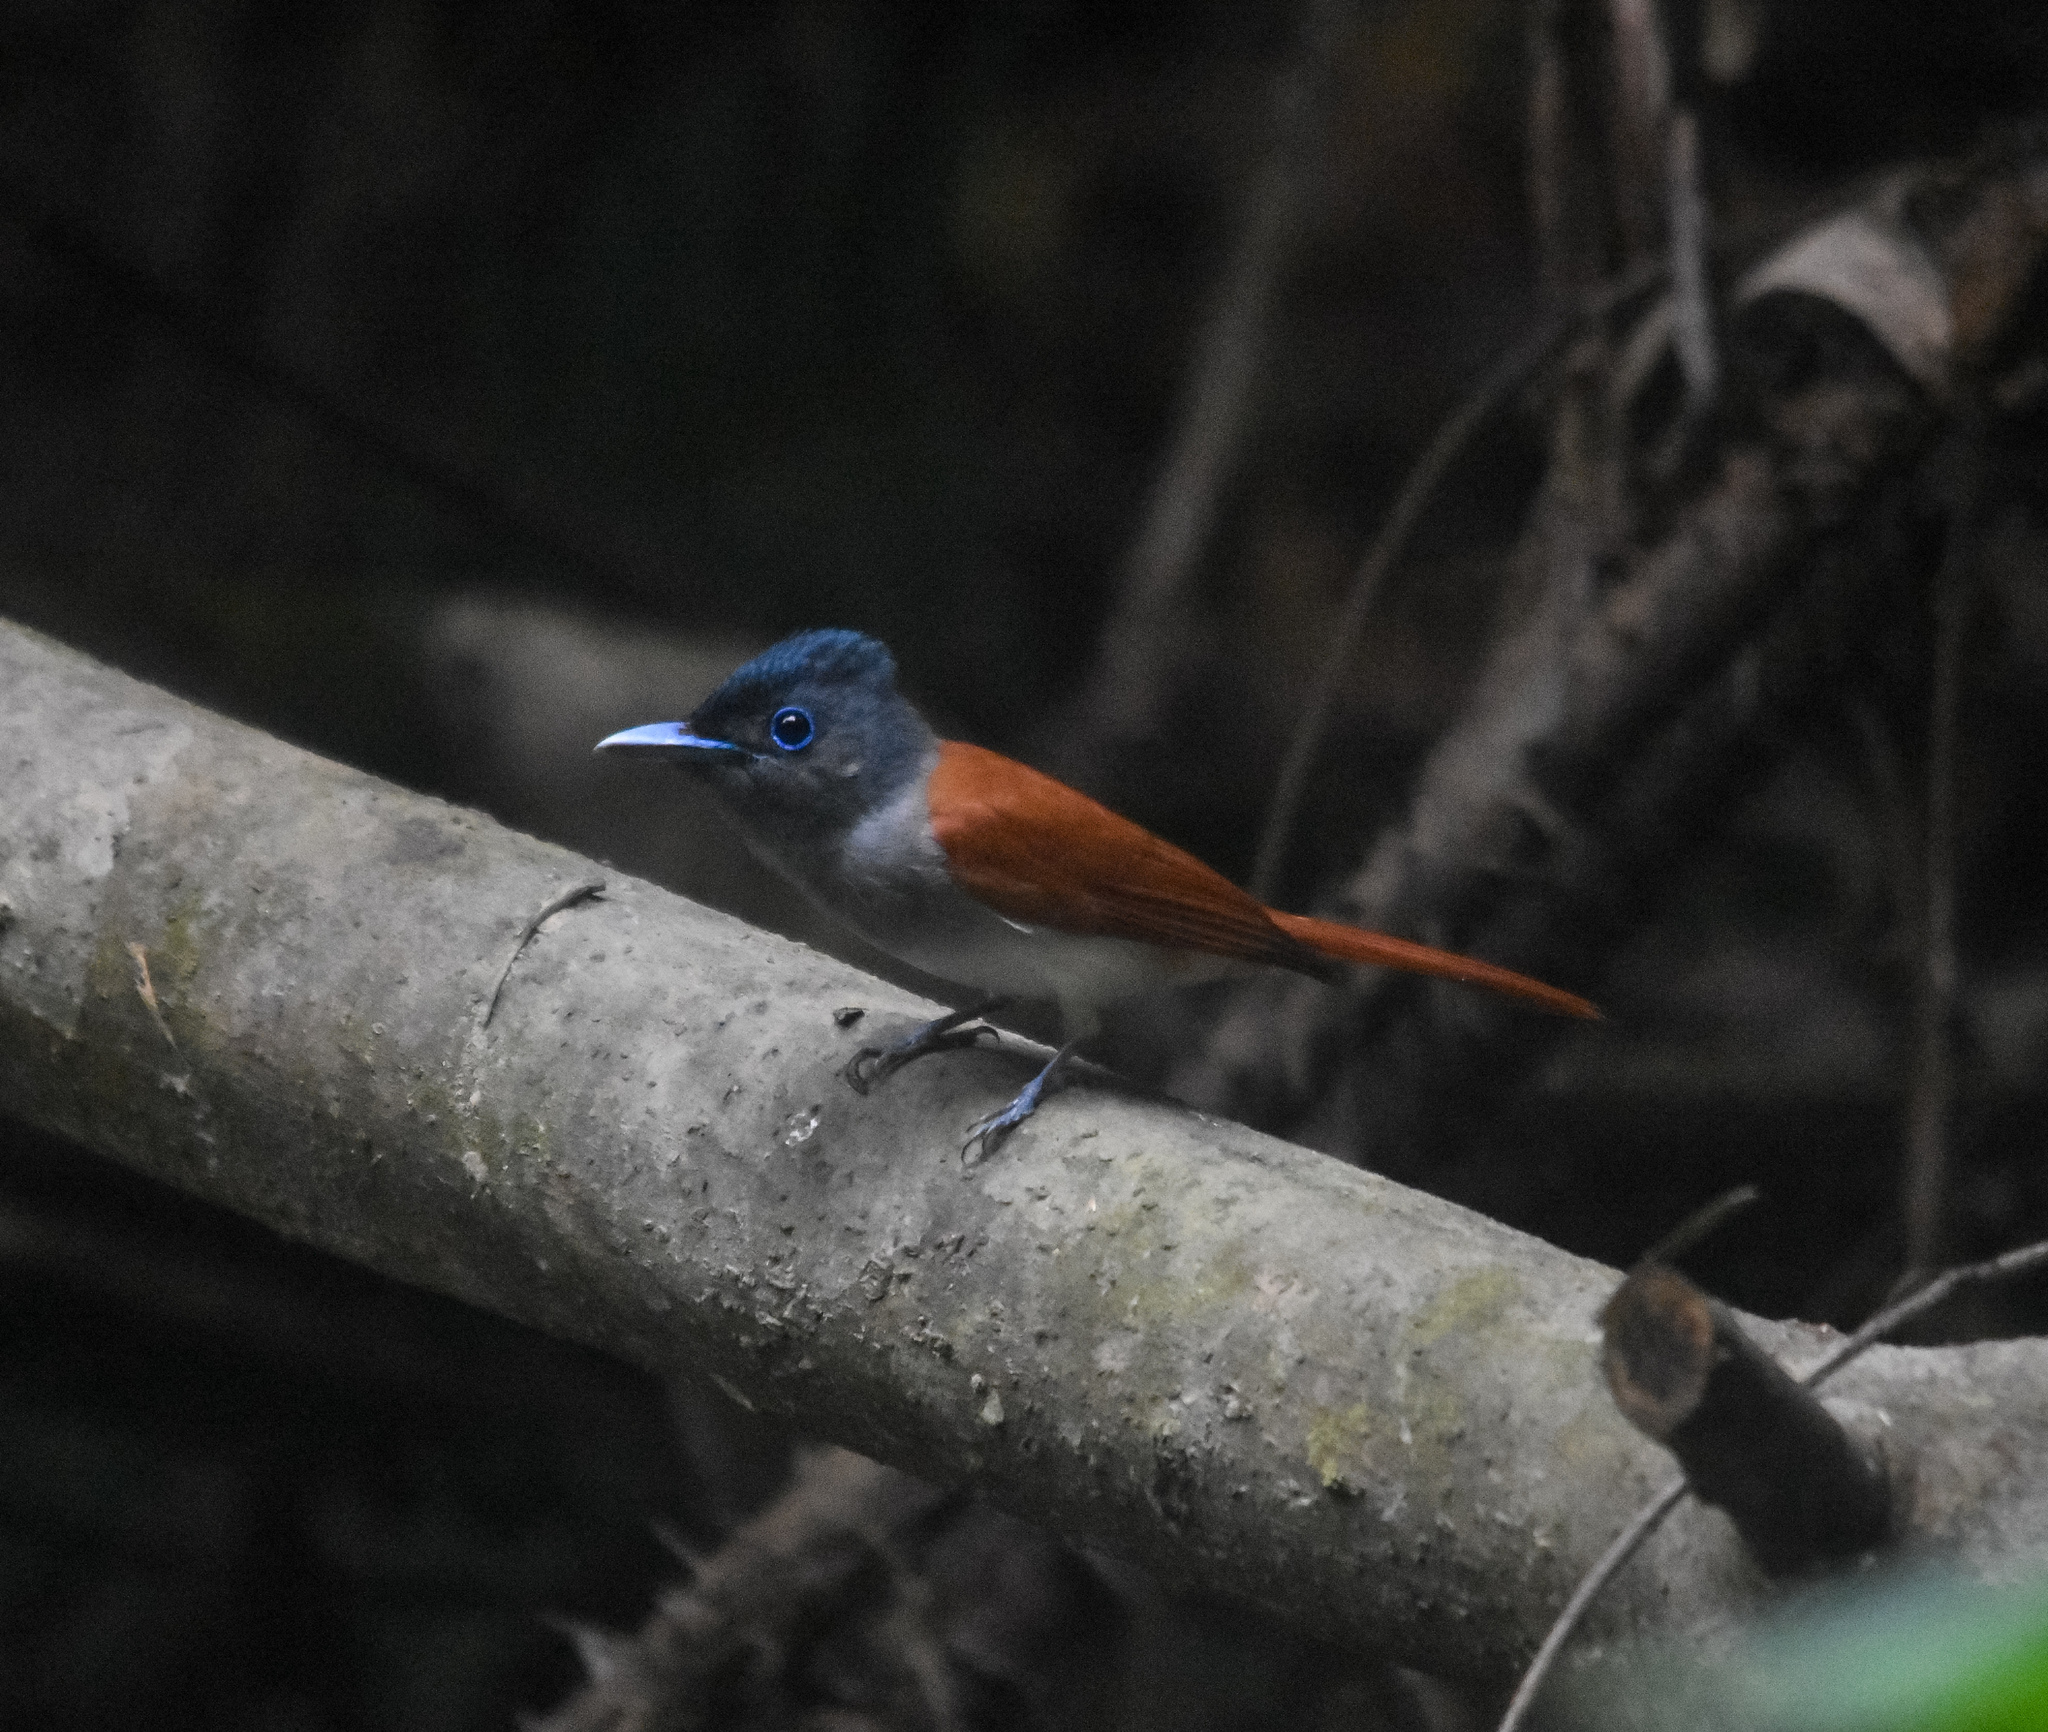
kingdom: Animalia
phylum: Chordata
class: Aves
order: Passeriformes
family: Monarchidae
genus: Terpsiphone
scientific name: Terpsiphone paradisi
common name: Indian paradise flycatcher
